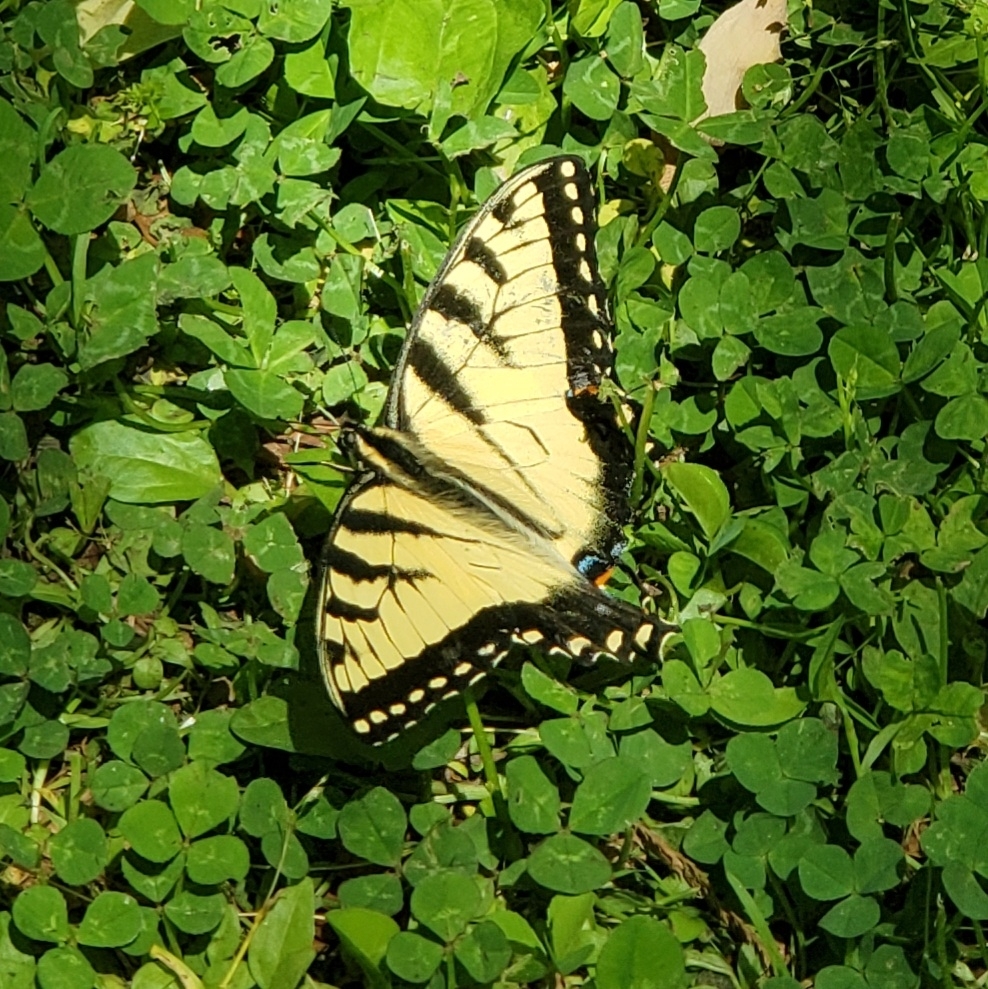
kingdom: Animalia
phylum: Arthropoda
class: Insecta
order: Lepidoptera
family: Papilionidae
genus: Papilio
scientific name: Papilio glaucus
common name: Tiger swallowtail
